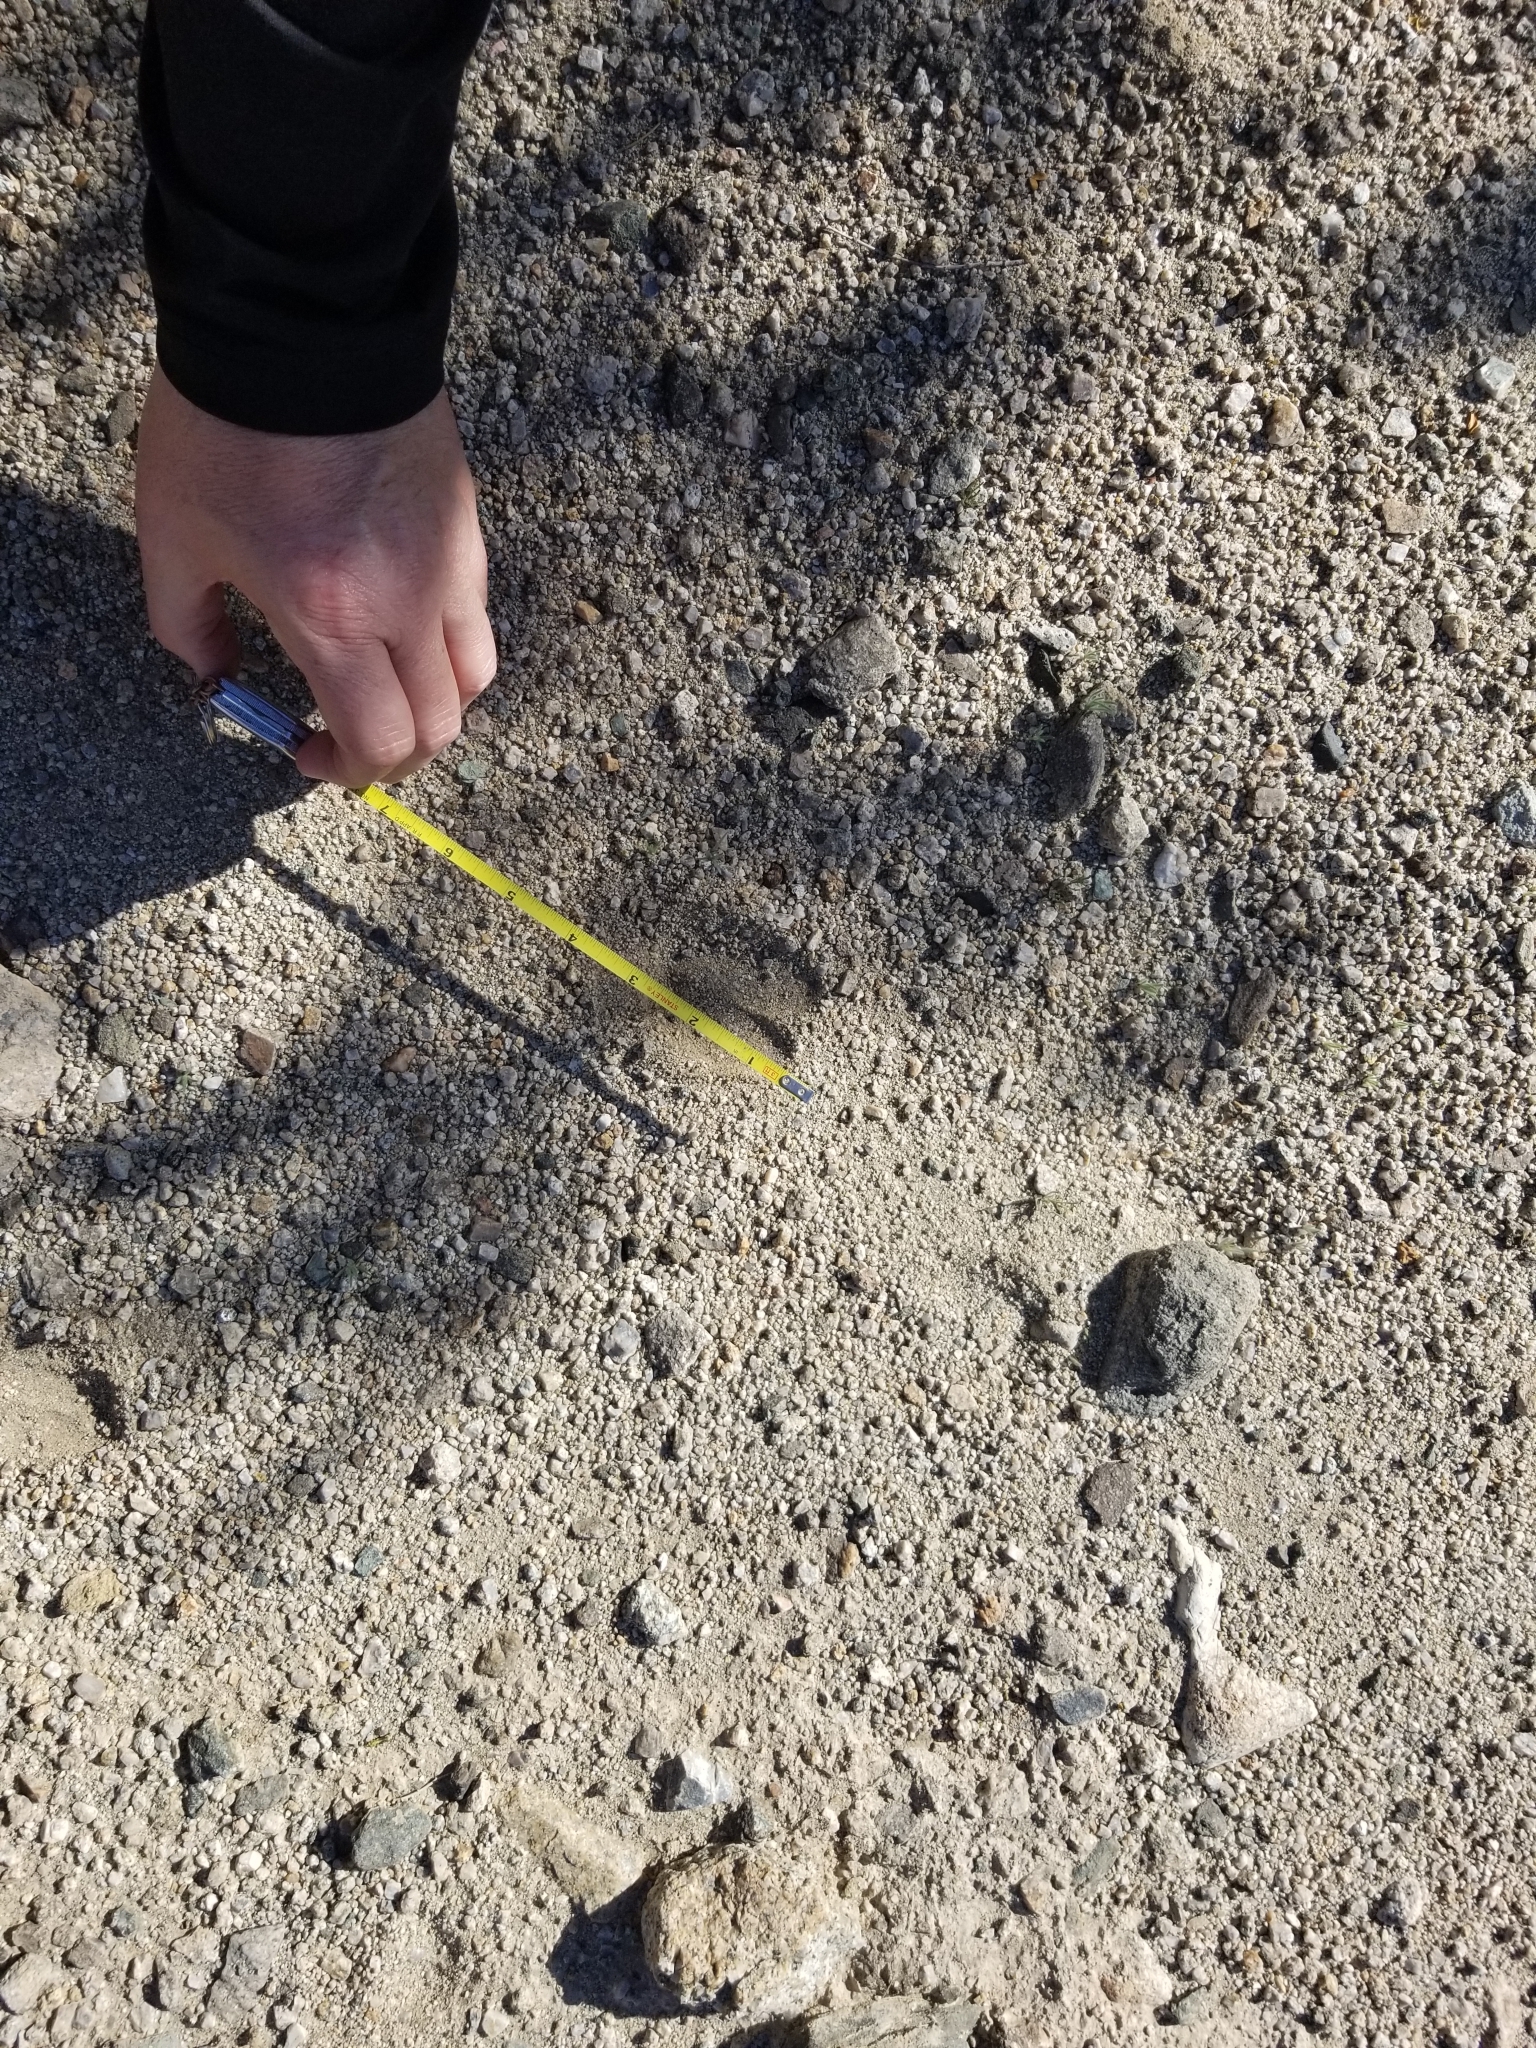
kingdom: Animalia
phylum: Chordata
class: Mammalia
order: Artiodactyla
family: Cervidae
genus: Odocoileus
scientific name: Odocoileus hemionus
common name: Mule deer
